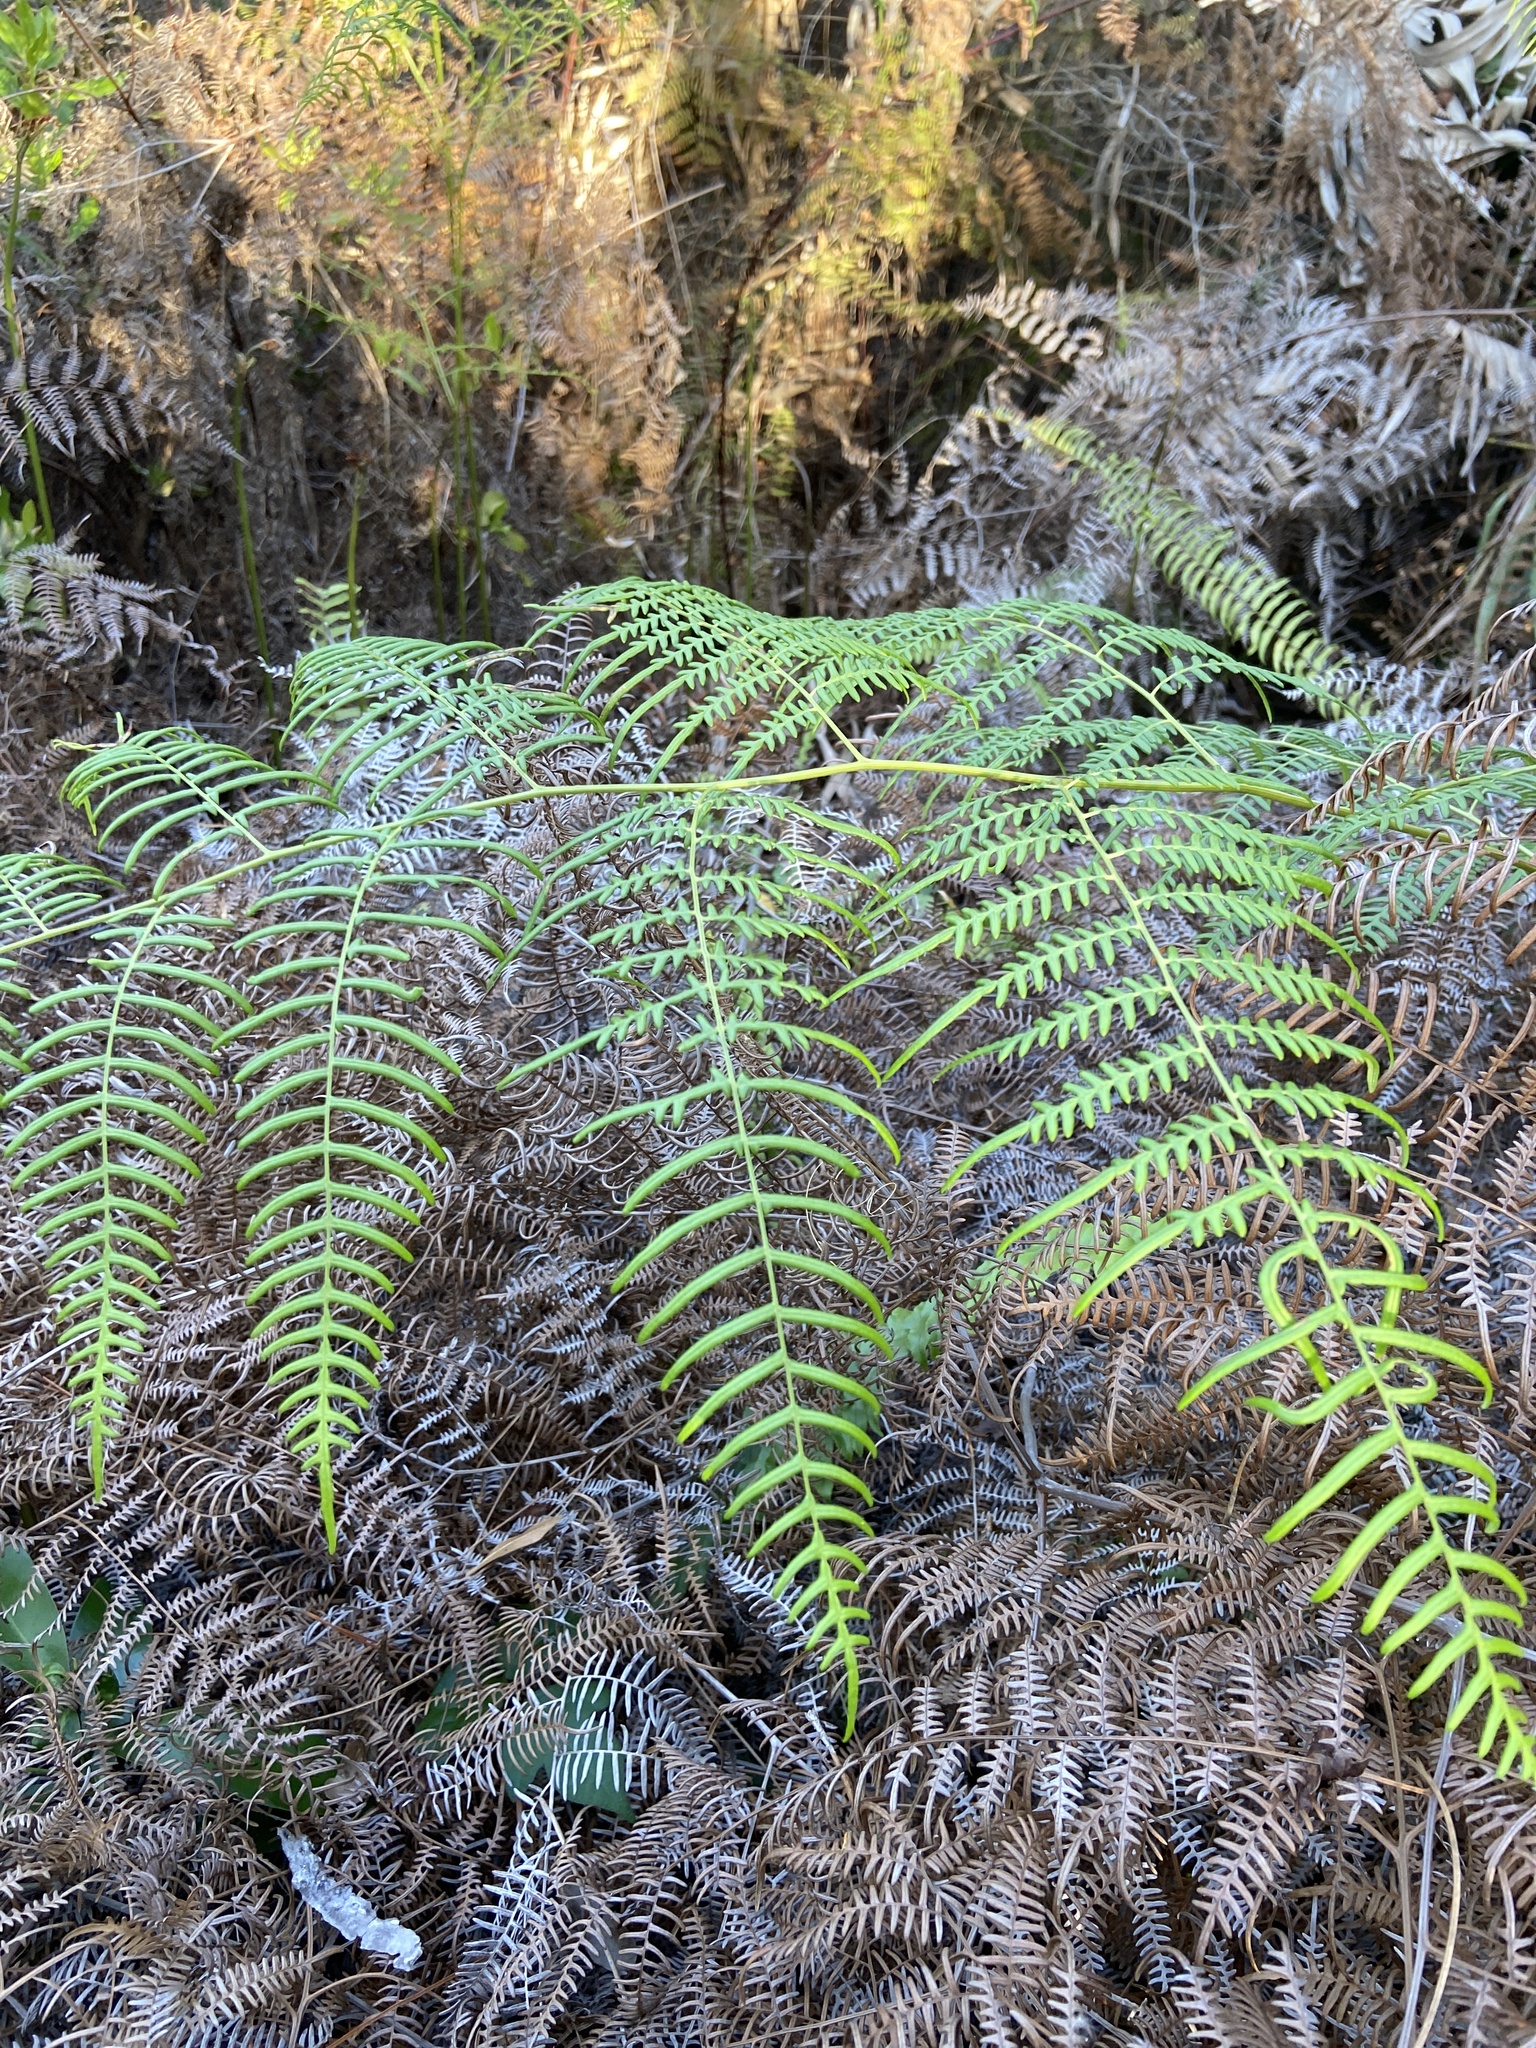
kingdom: Plantae
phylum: Tracheophyta
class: Polypodiopsida
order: Polypodiales
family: Dennstaedtiaceae
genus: Pteridium
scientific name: Pteridium caudatum
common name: Southern bracken fern
